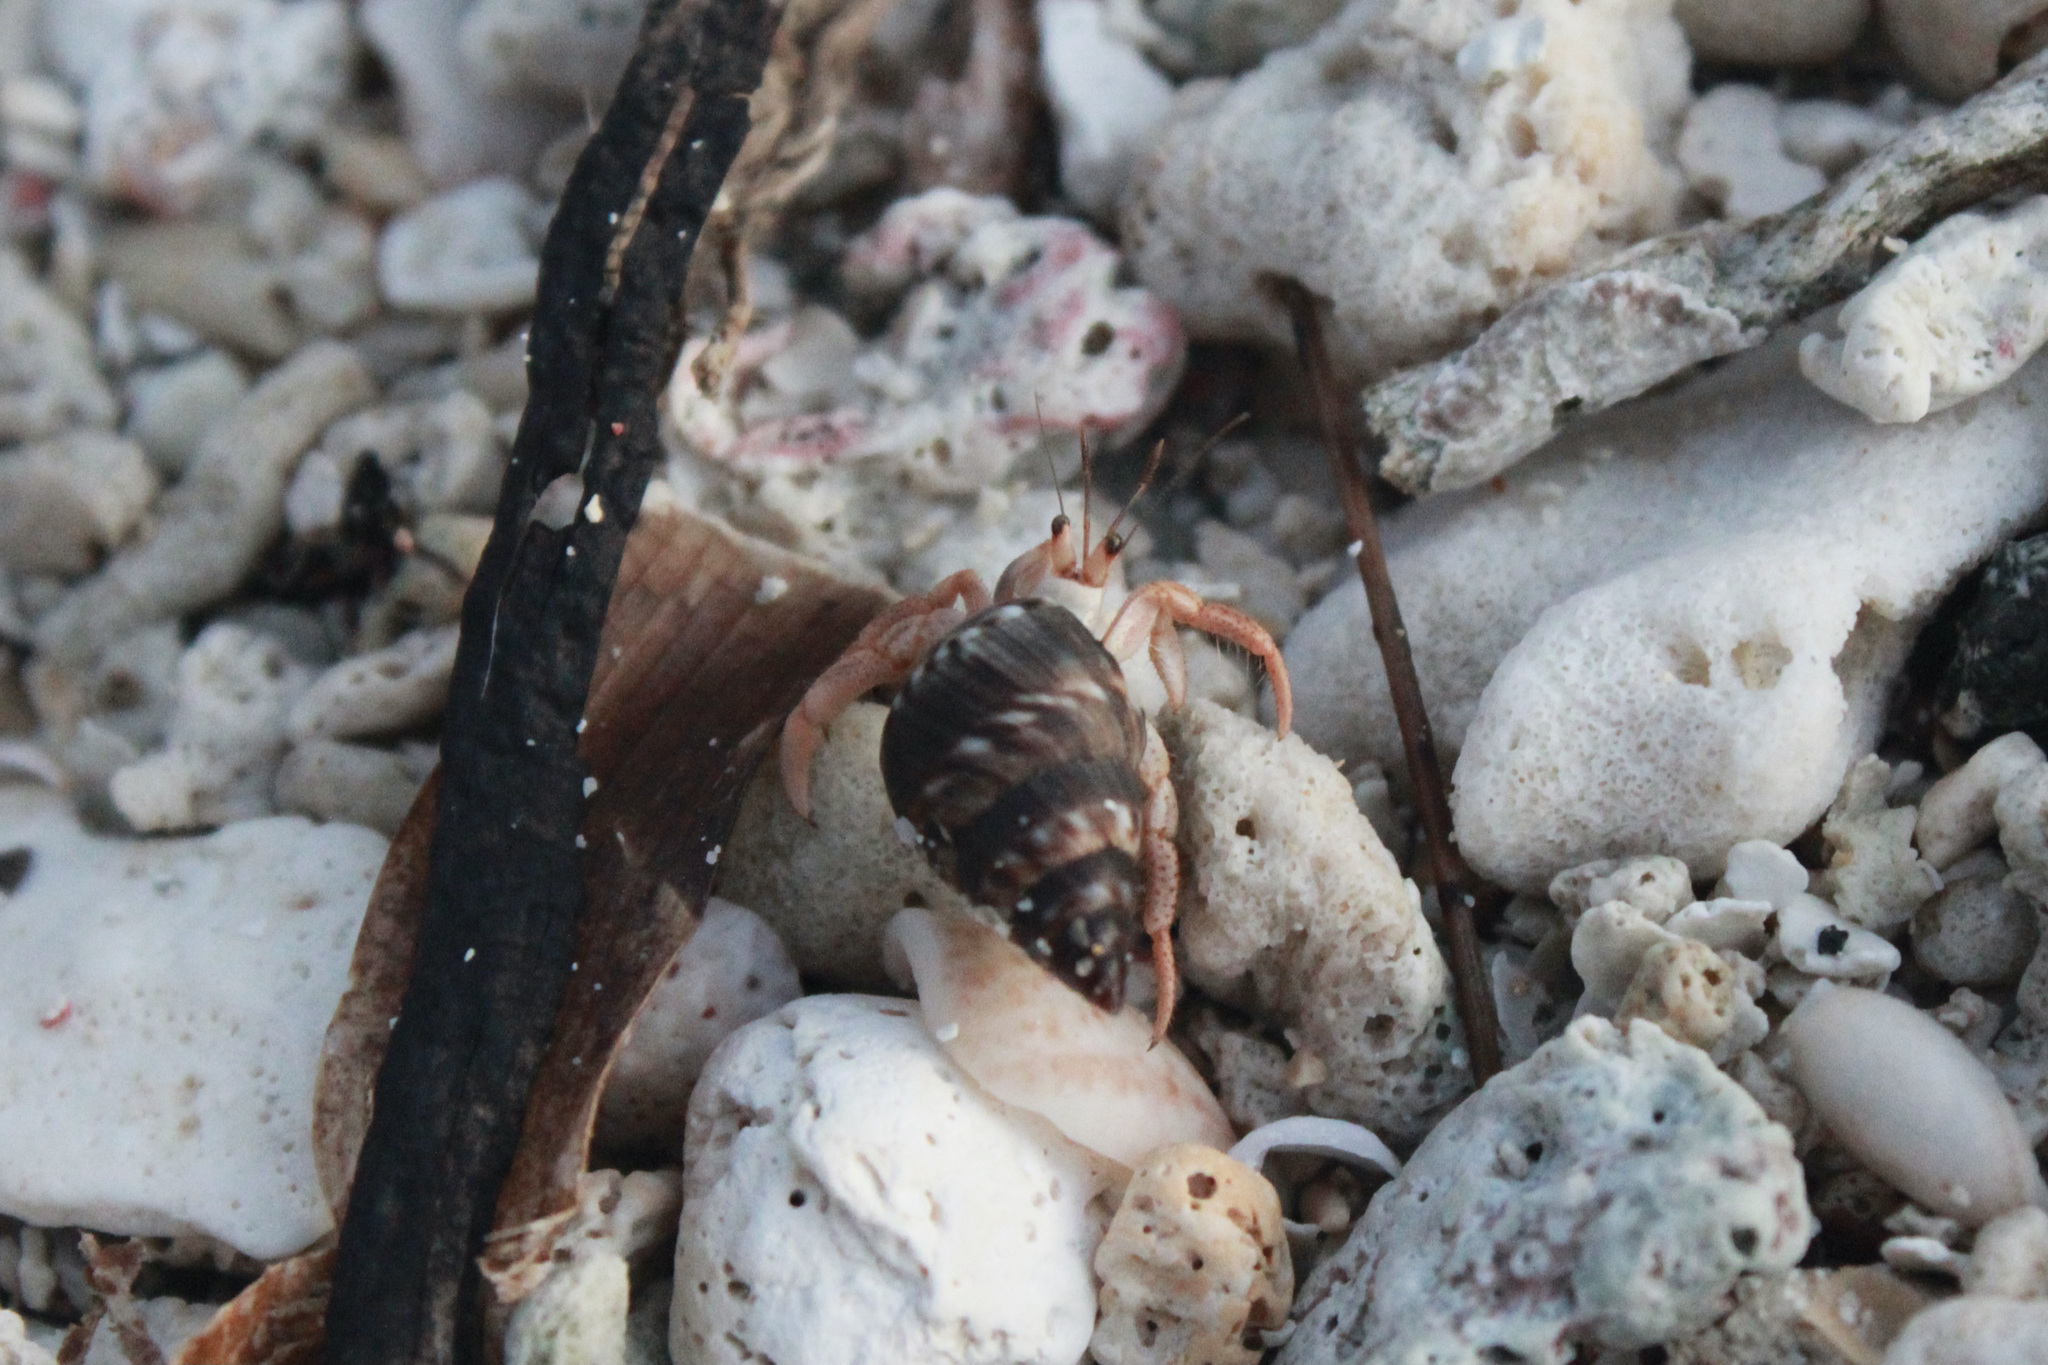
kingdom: Animalia
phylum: Arthropoda
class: Malacostraca
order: Decapoda
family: Coenobitidae
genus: Coenobita
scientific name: Coenobita clypeatus
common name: Caribbean hermit crab
